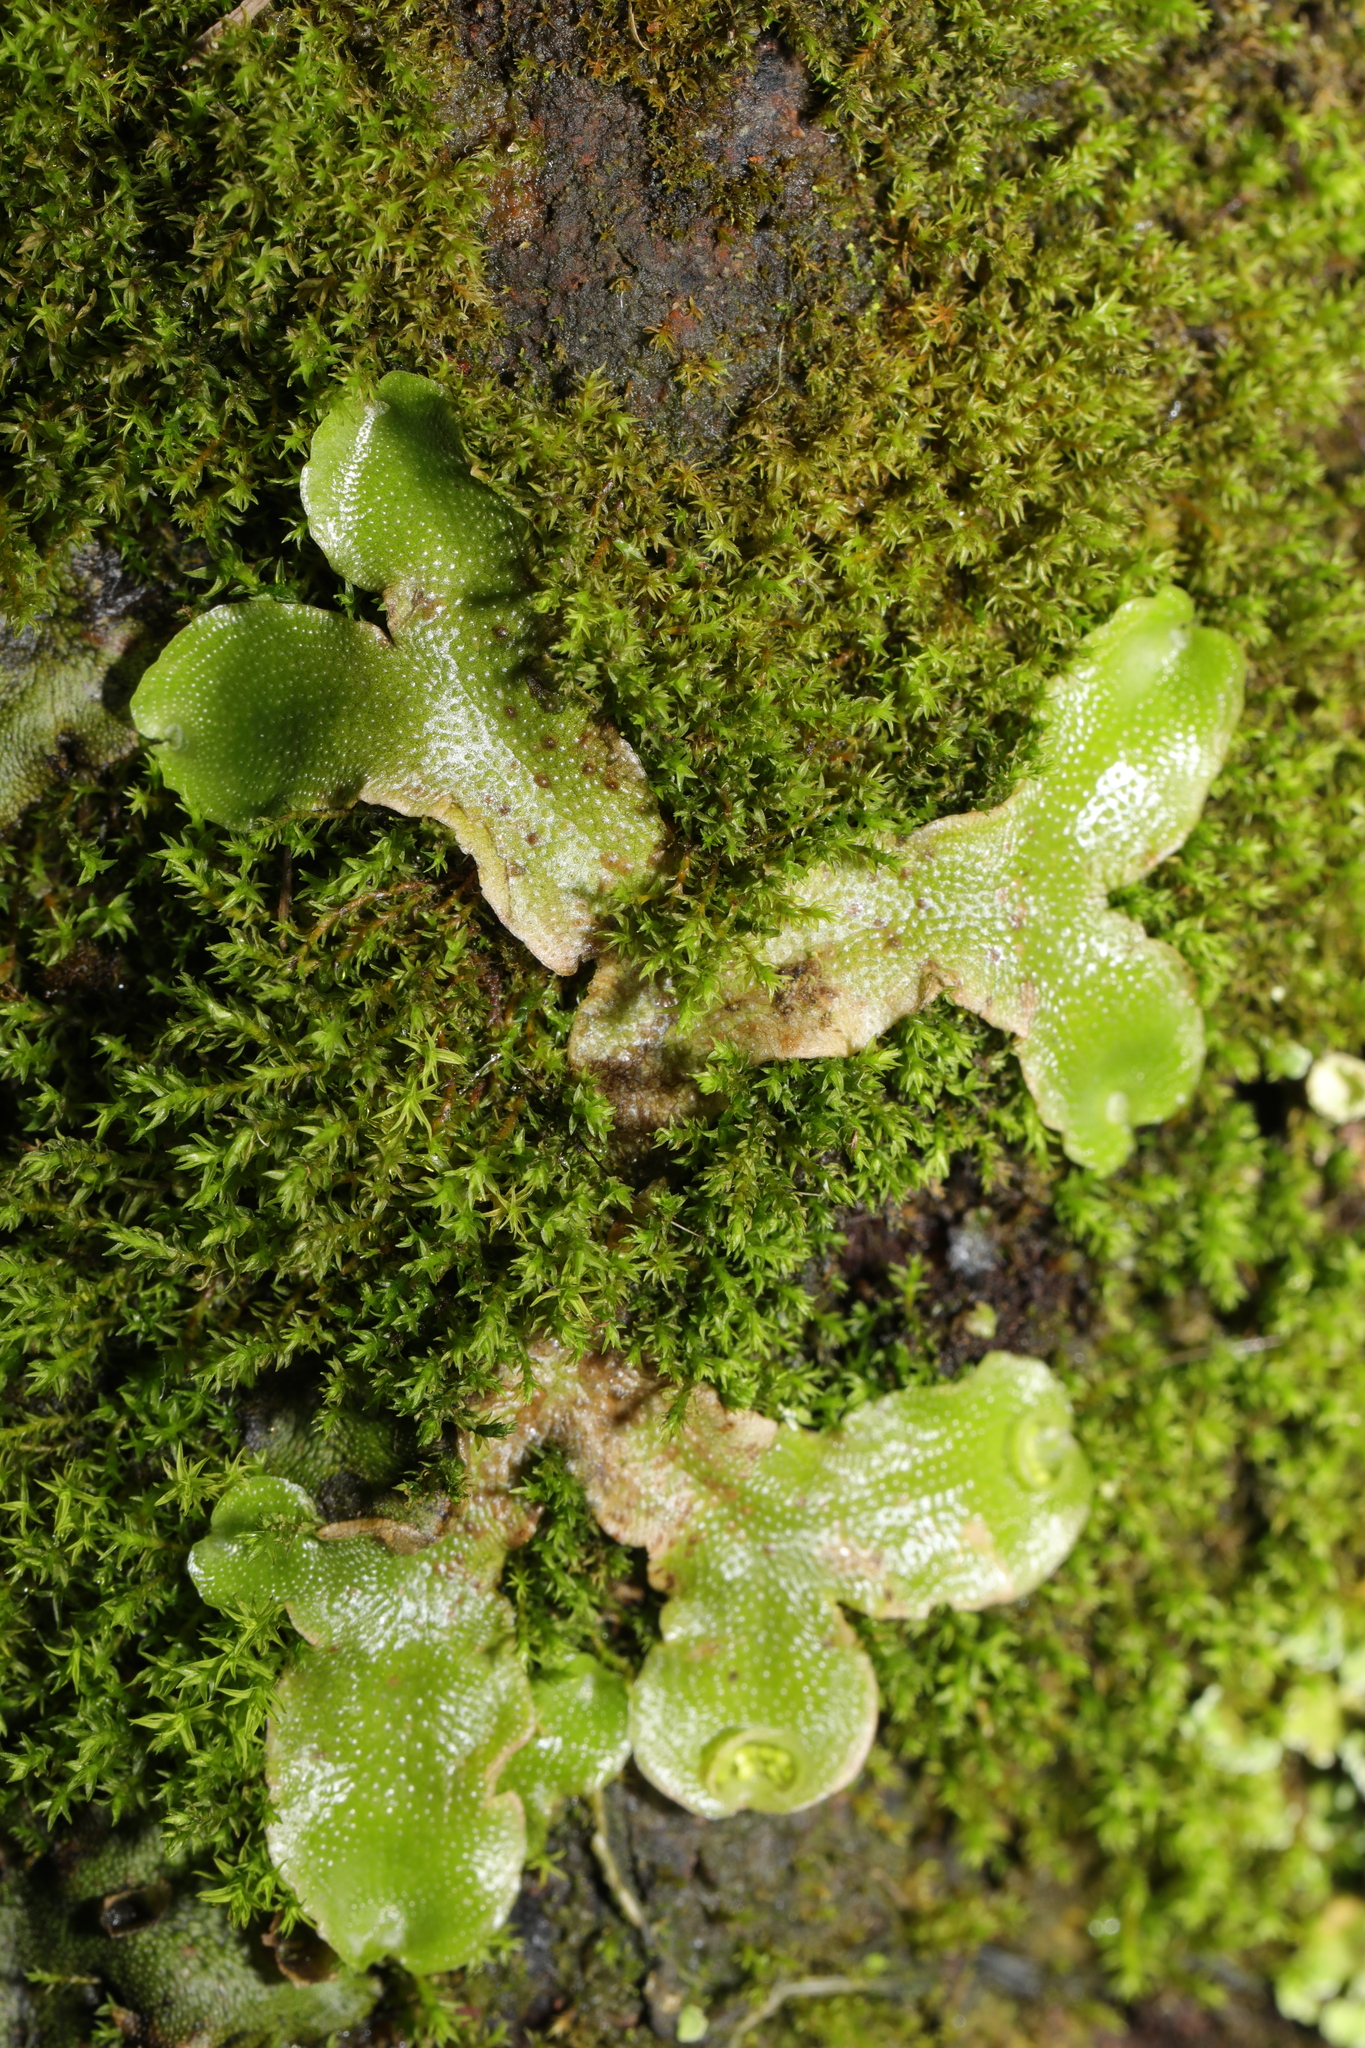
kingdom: Plantae
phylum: Marchantiophyta
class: Marchantiopsida
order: Lunulariales
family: Lunulariaceae
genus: Lunularia
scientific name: Lunularia cruciata
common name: Crescent-cup liverwort
